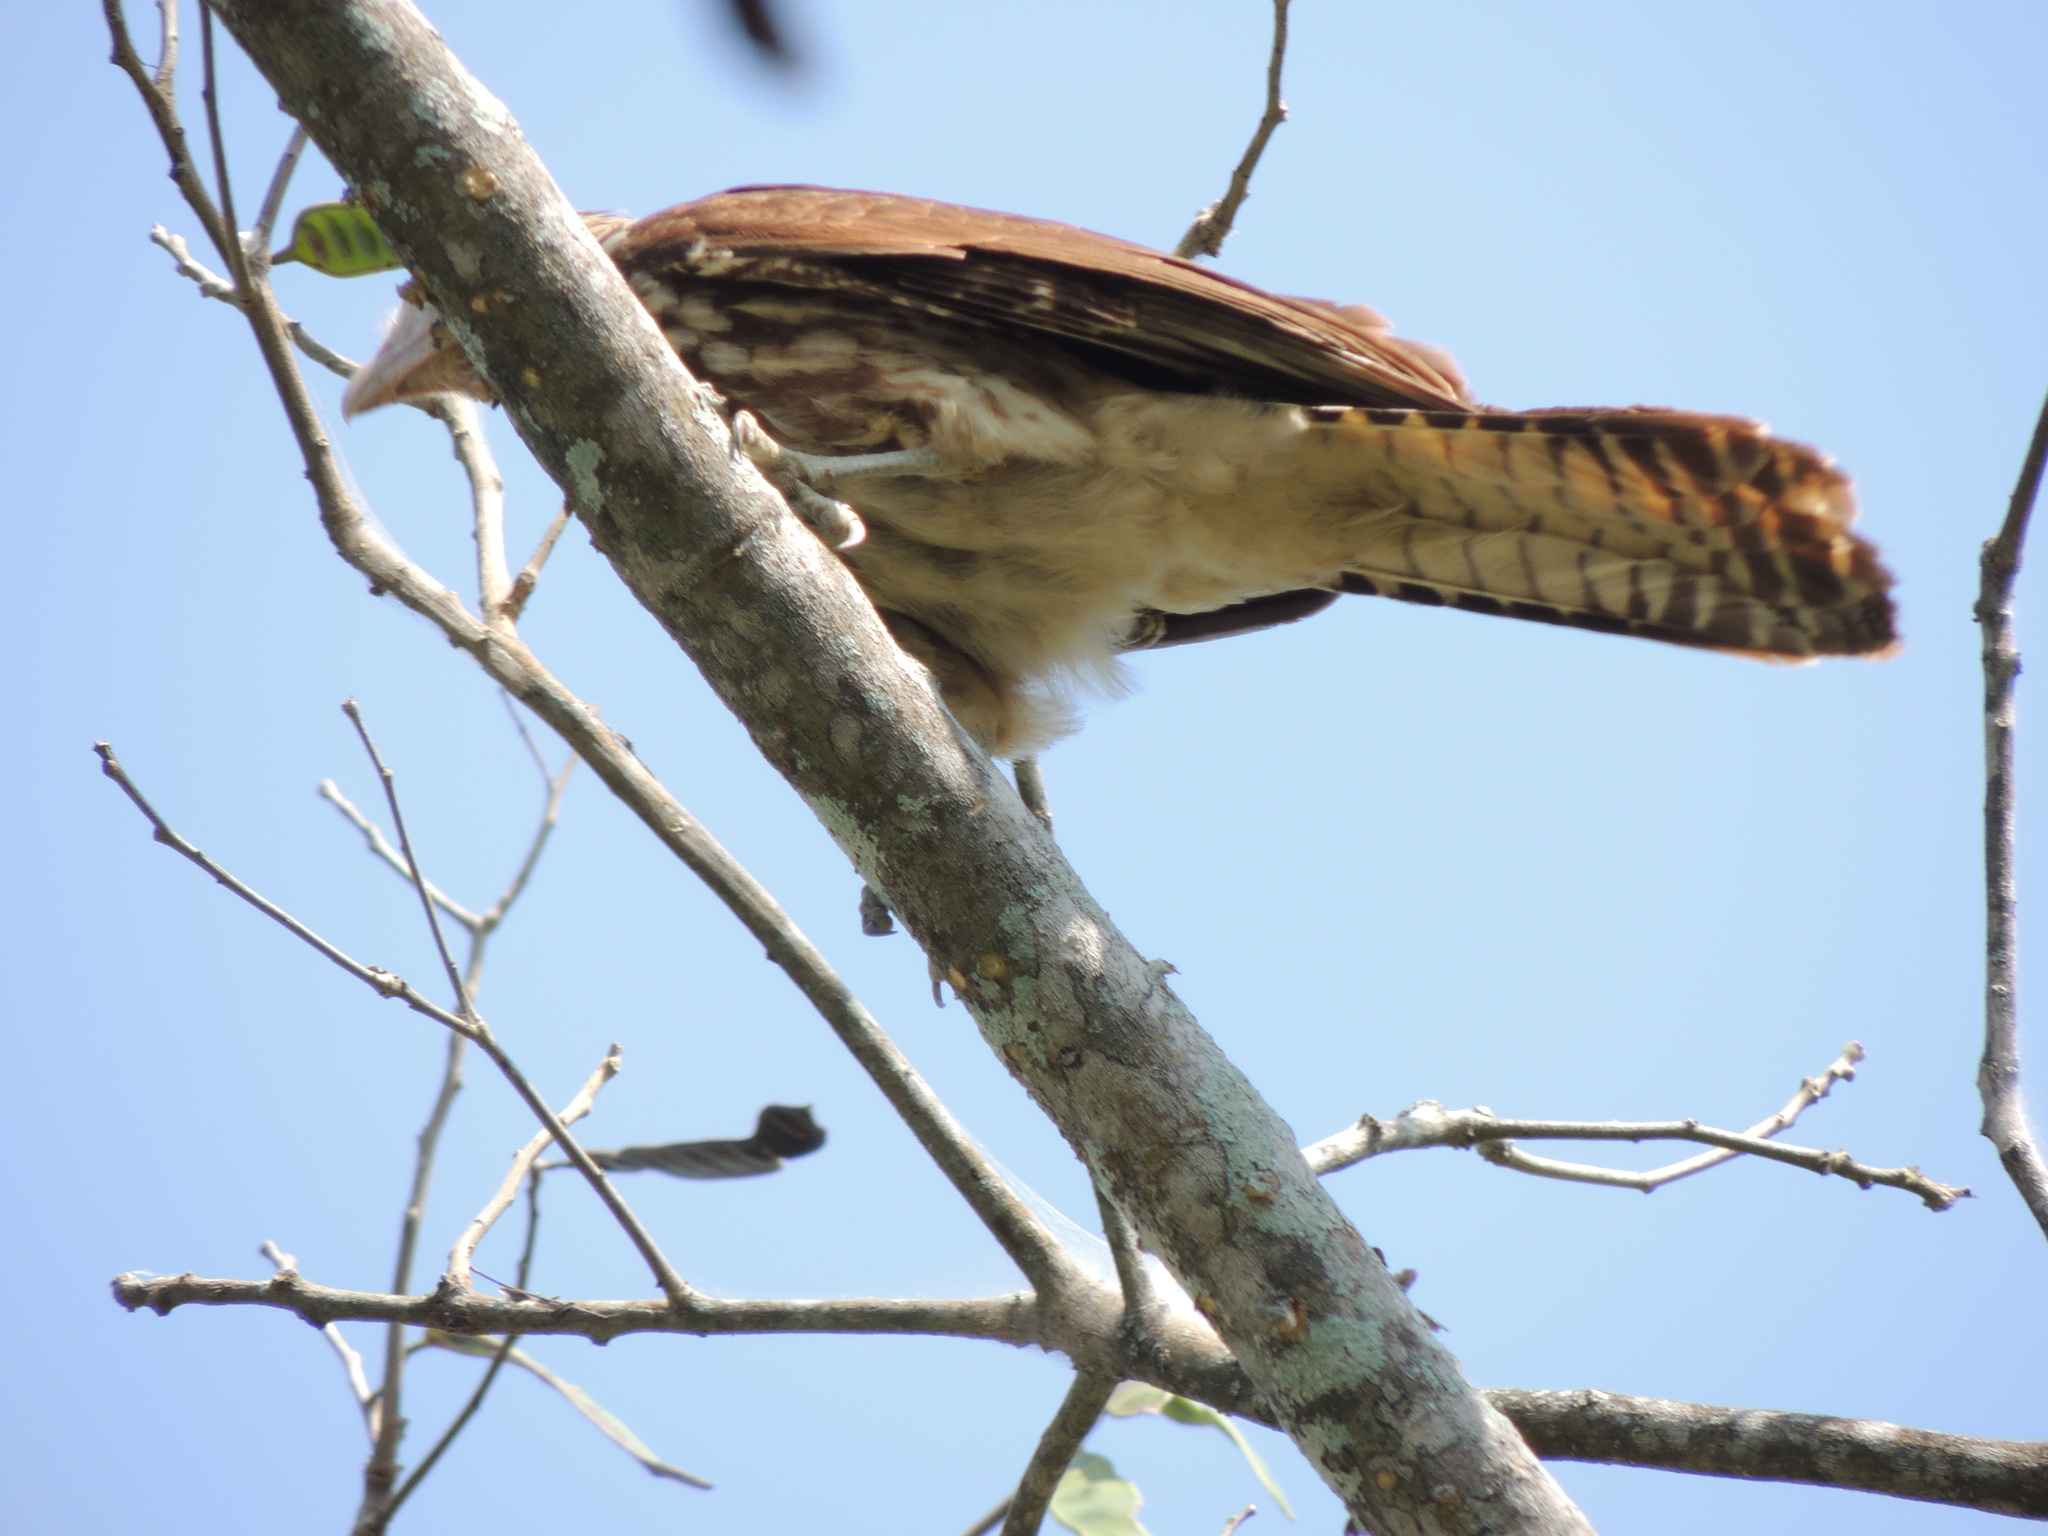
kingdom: Animalia
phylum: Chordata
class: Aves
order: Falconiformes
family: Falconidae
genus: Daptrius
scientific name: Daptrius
